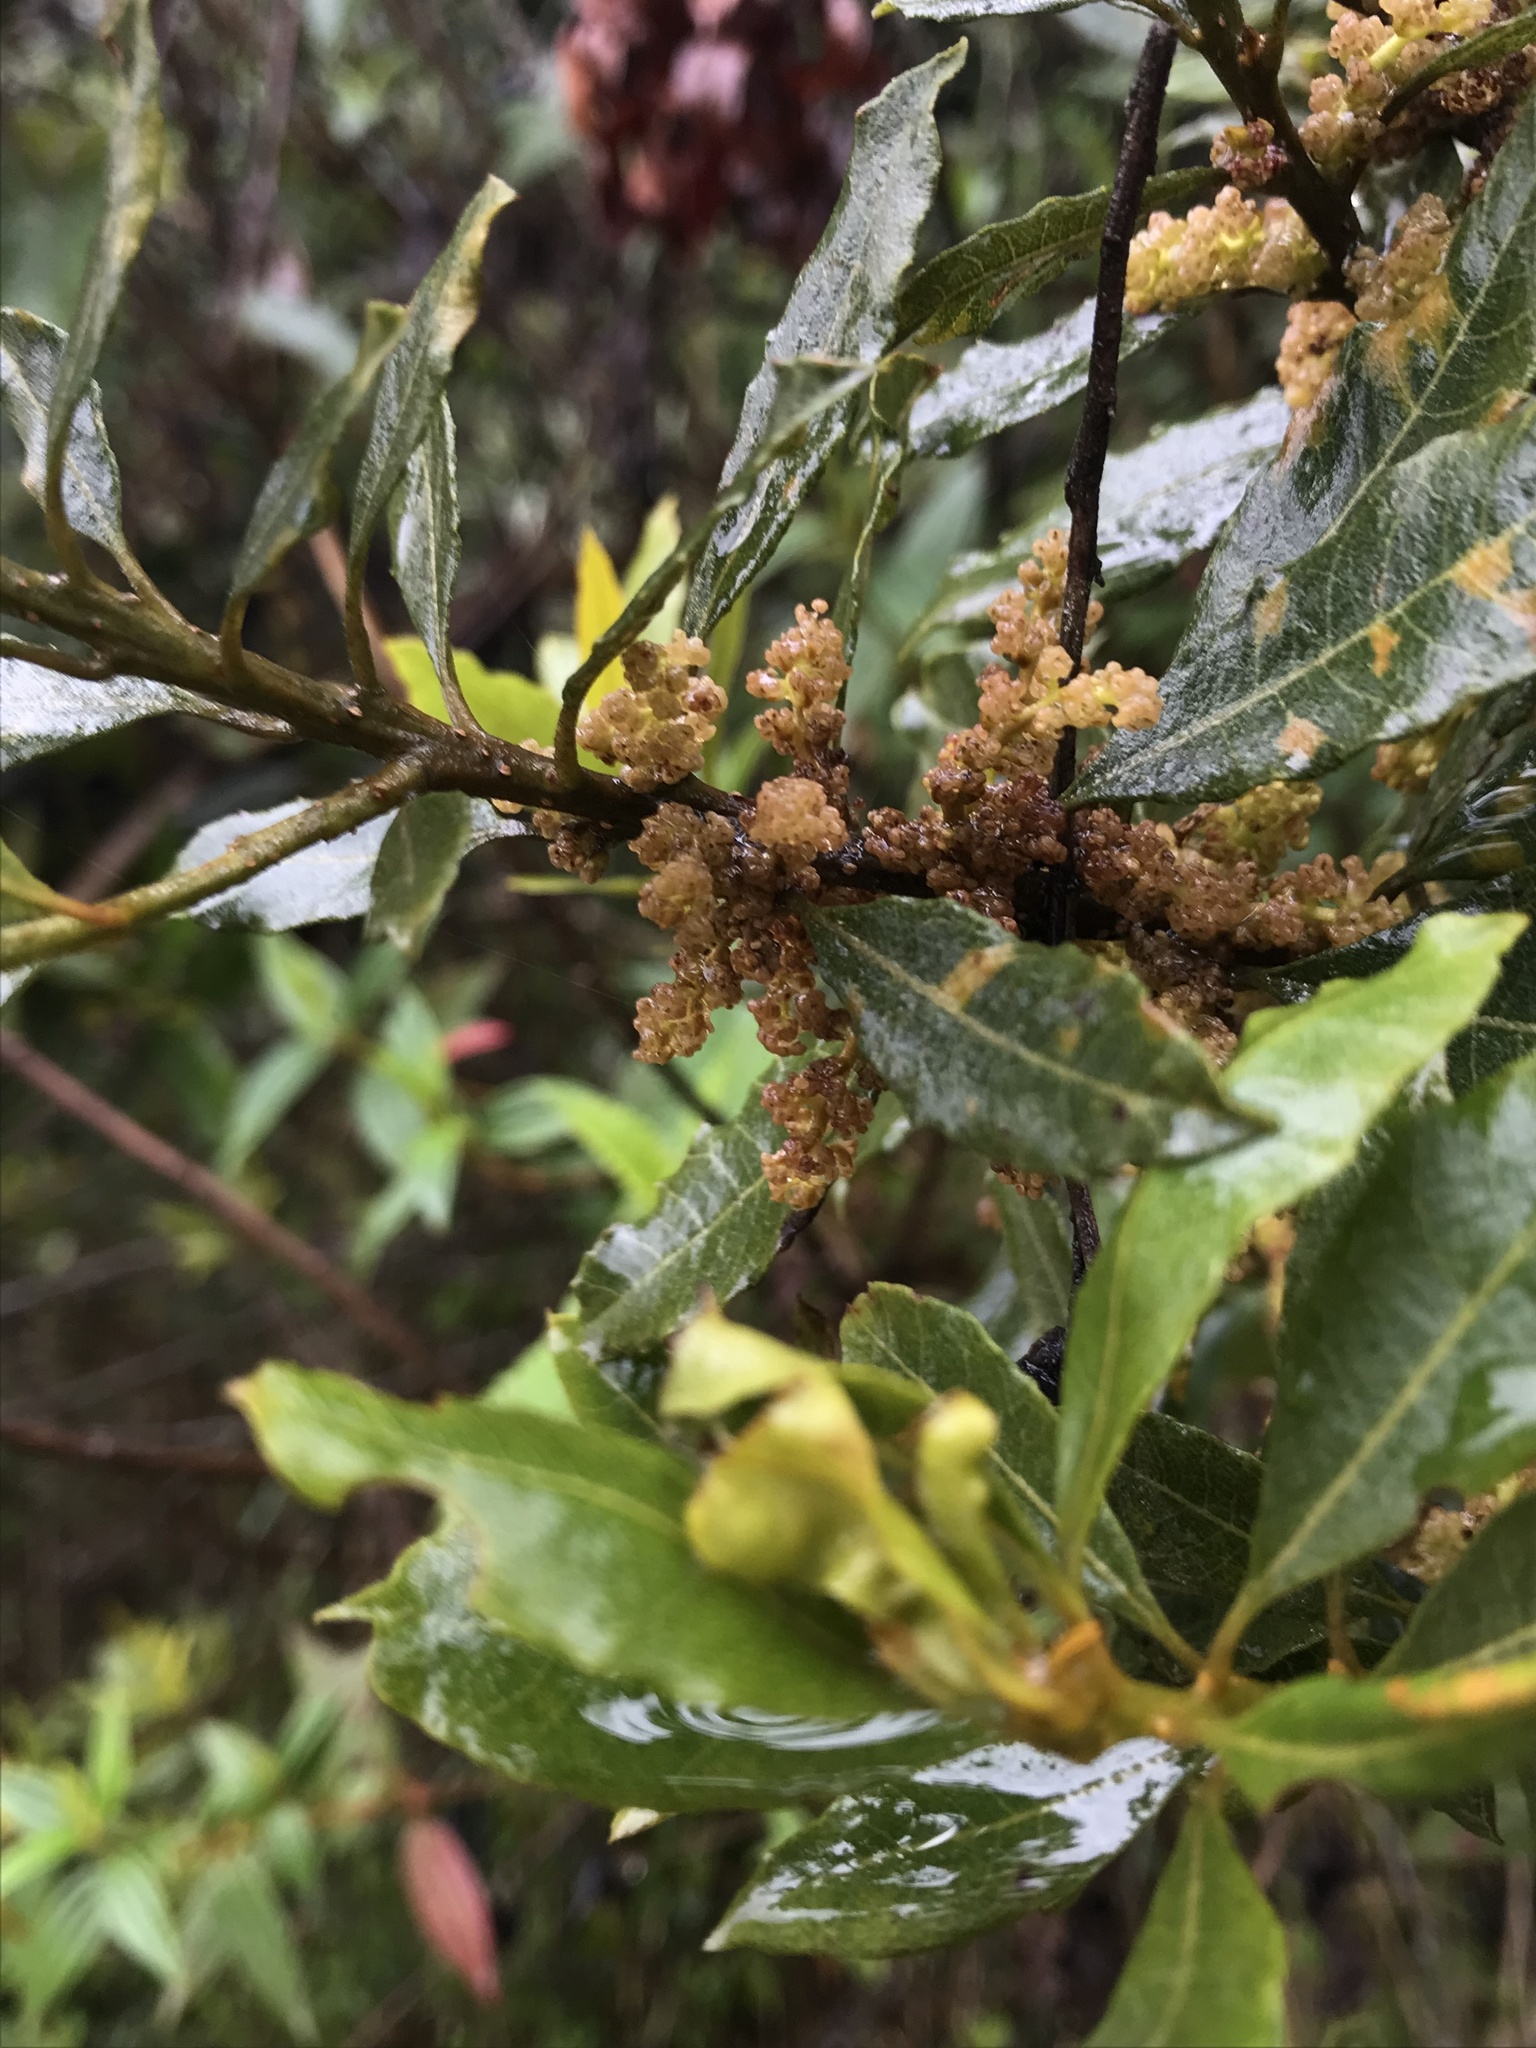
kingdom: Plantae
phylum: Tracheophyta
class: Magnoliopsida
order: Fagales
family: Myricaceae
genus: Morella
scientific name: Morella parvifolia
